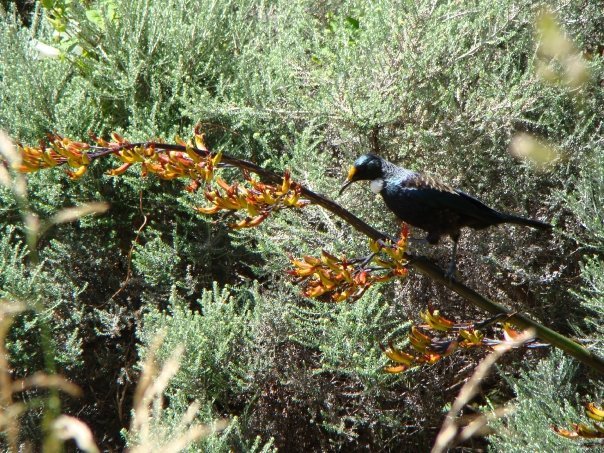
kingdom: Animalia
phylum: Chordata
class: Aves
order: Passeriformes
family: Meliphagidae
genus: Prosthemadera
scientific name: Prosthemadera novaeseelandiae
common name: Tui
